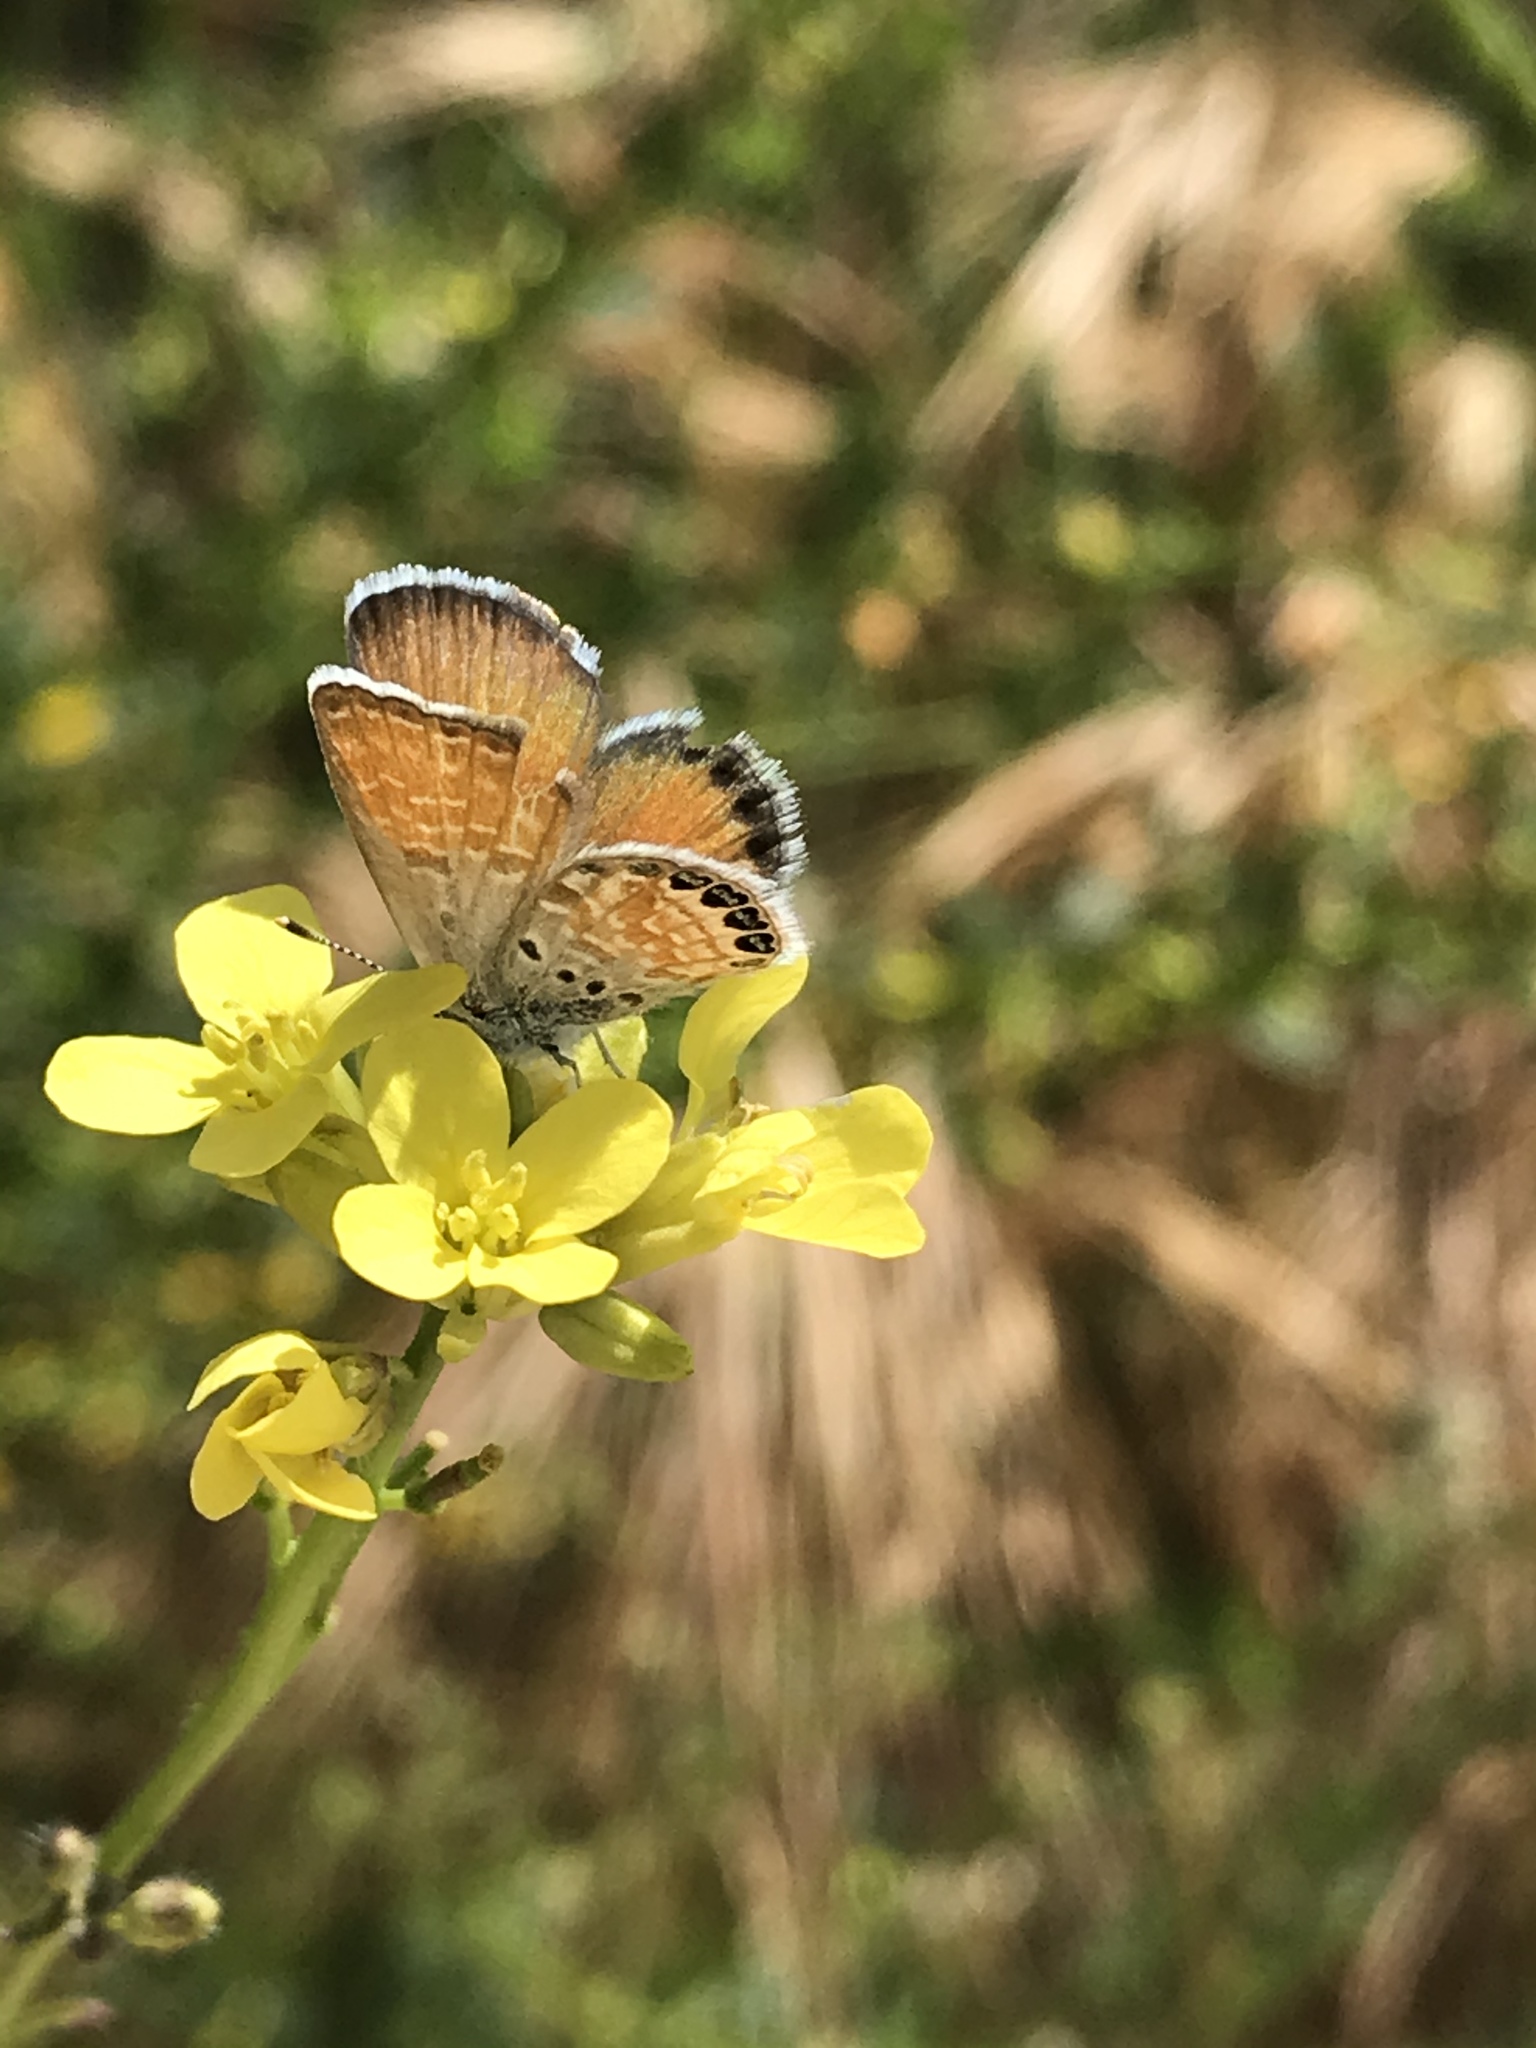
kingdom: Animalia
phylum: Arthropoda
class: Insecta
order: Lepidoptera
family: Lycaenidae
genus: Brephidium
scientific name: Brephidium exilis
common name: Pygmy blue
